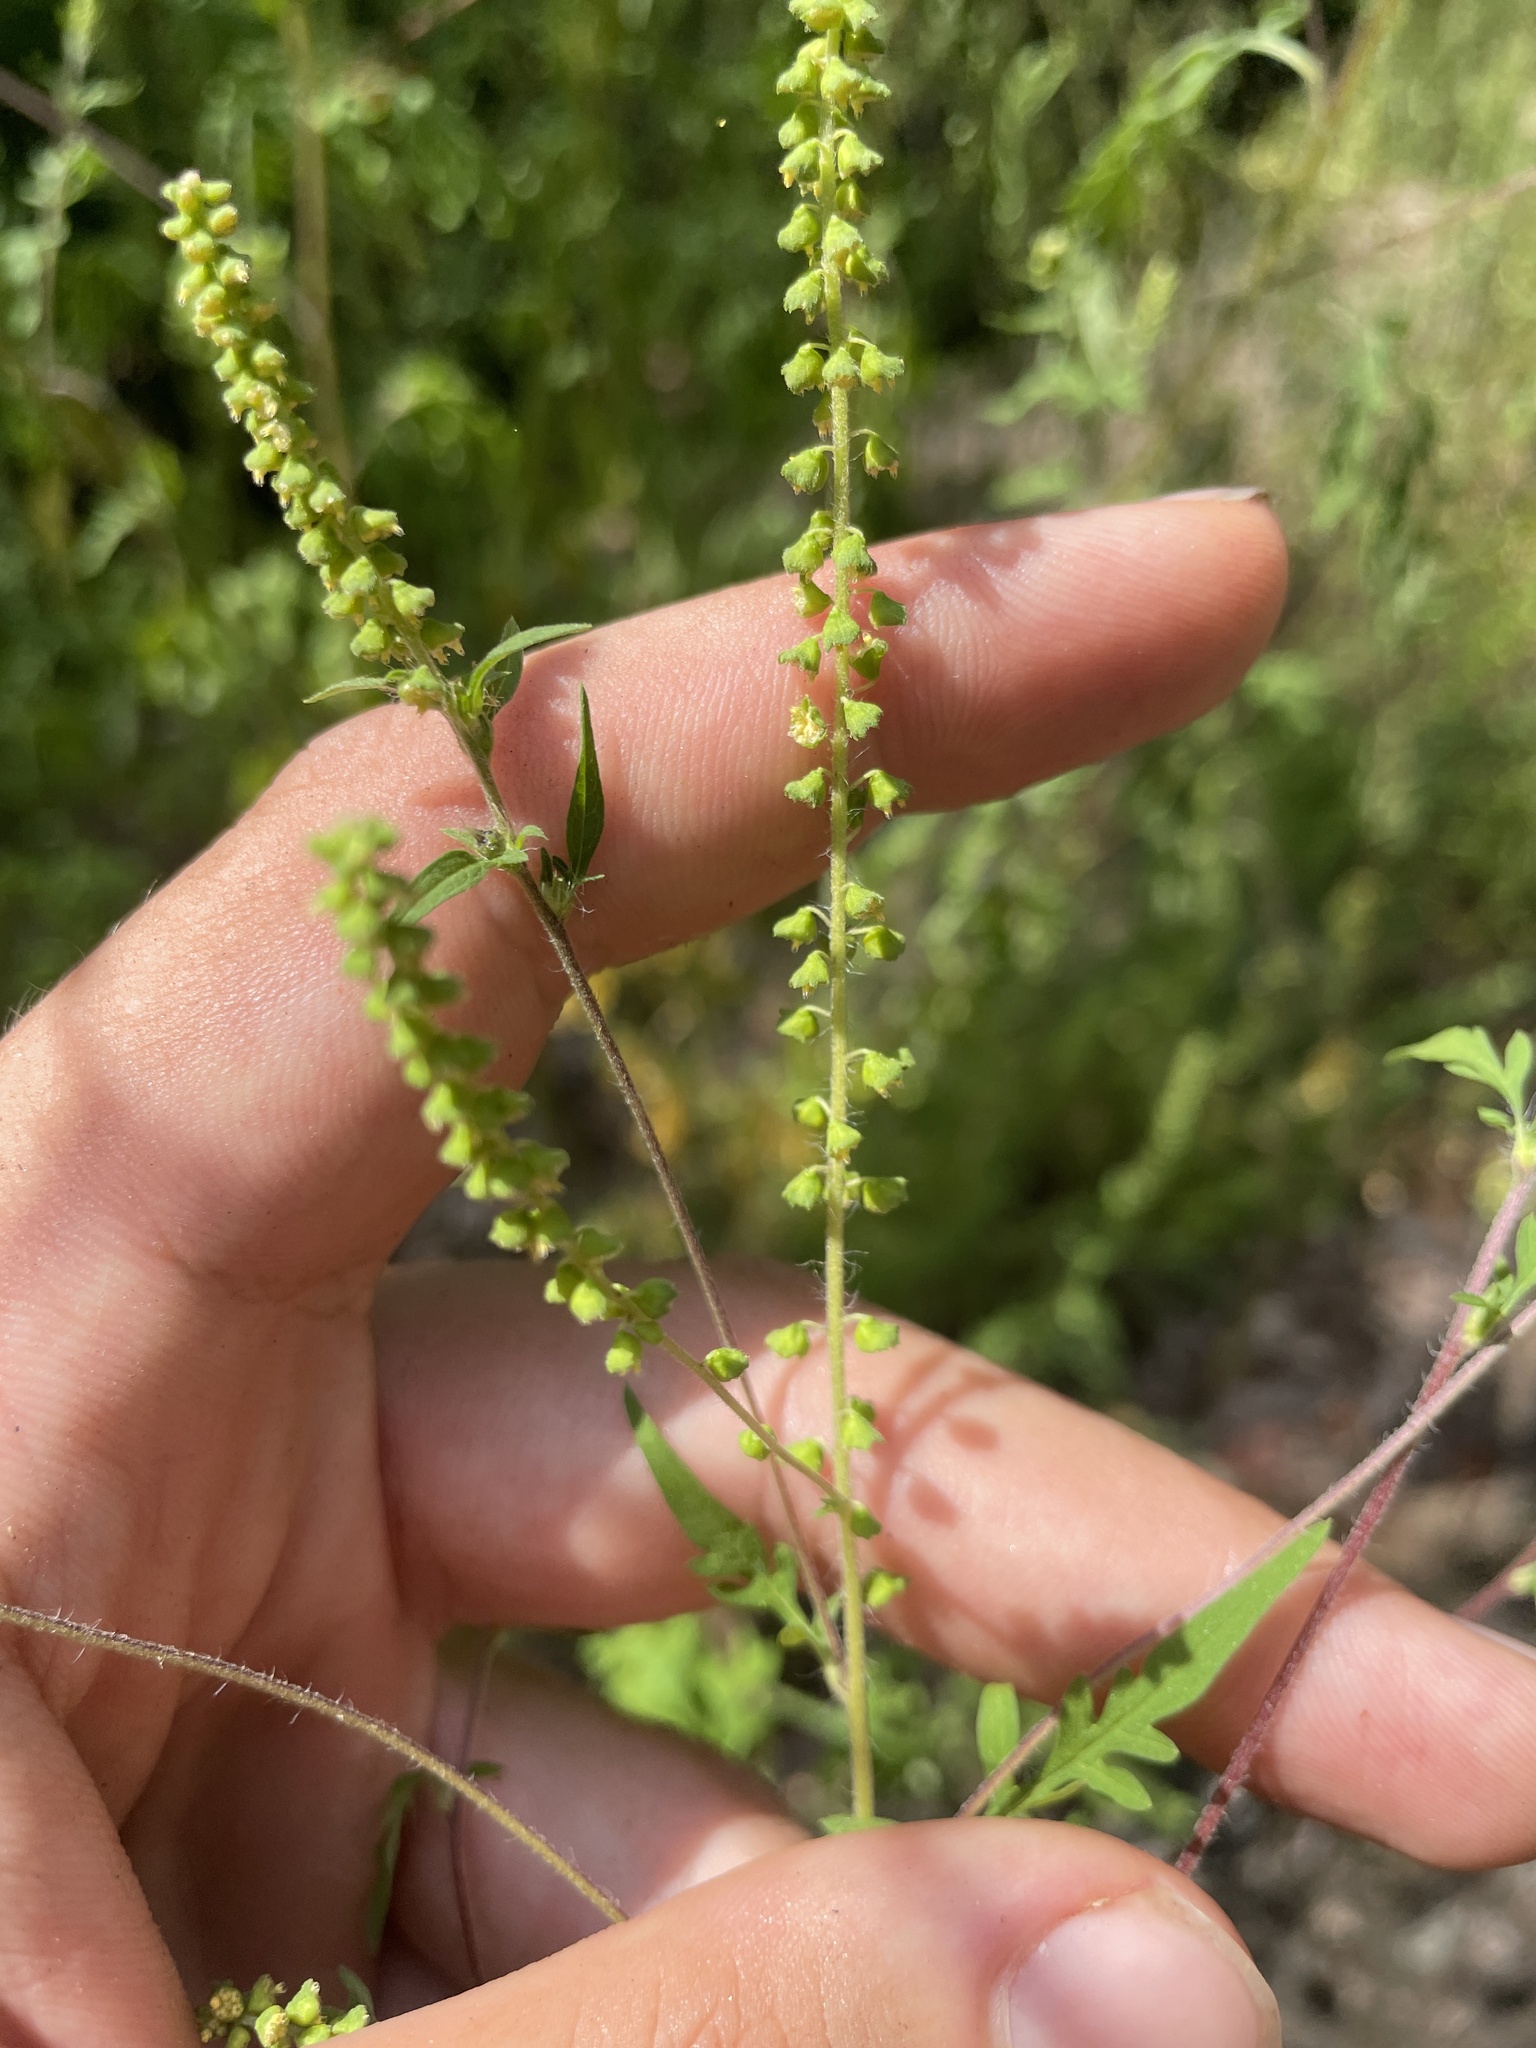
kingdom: Plantae
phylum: Tracheophyta
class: Magnoliopsida
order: Asterales
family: Asteraceae
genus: Ambrosia
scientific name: Ambrosia artemisiifolia
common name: Annual ragweed
